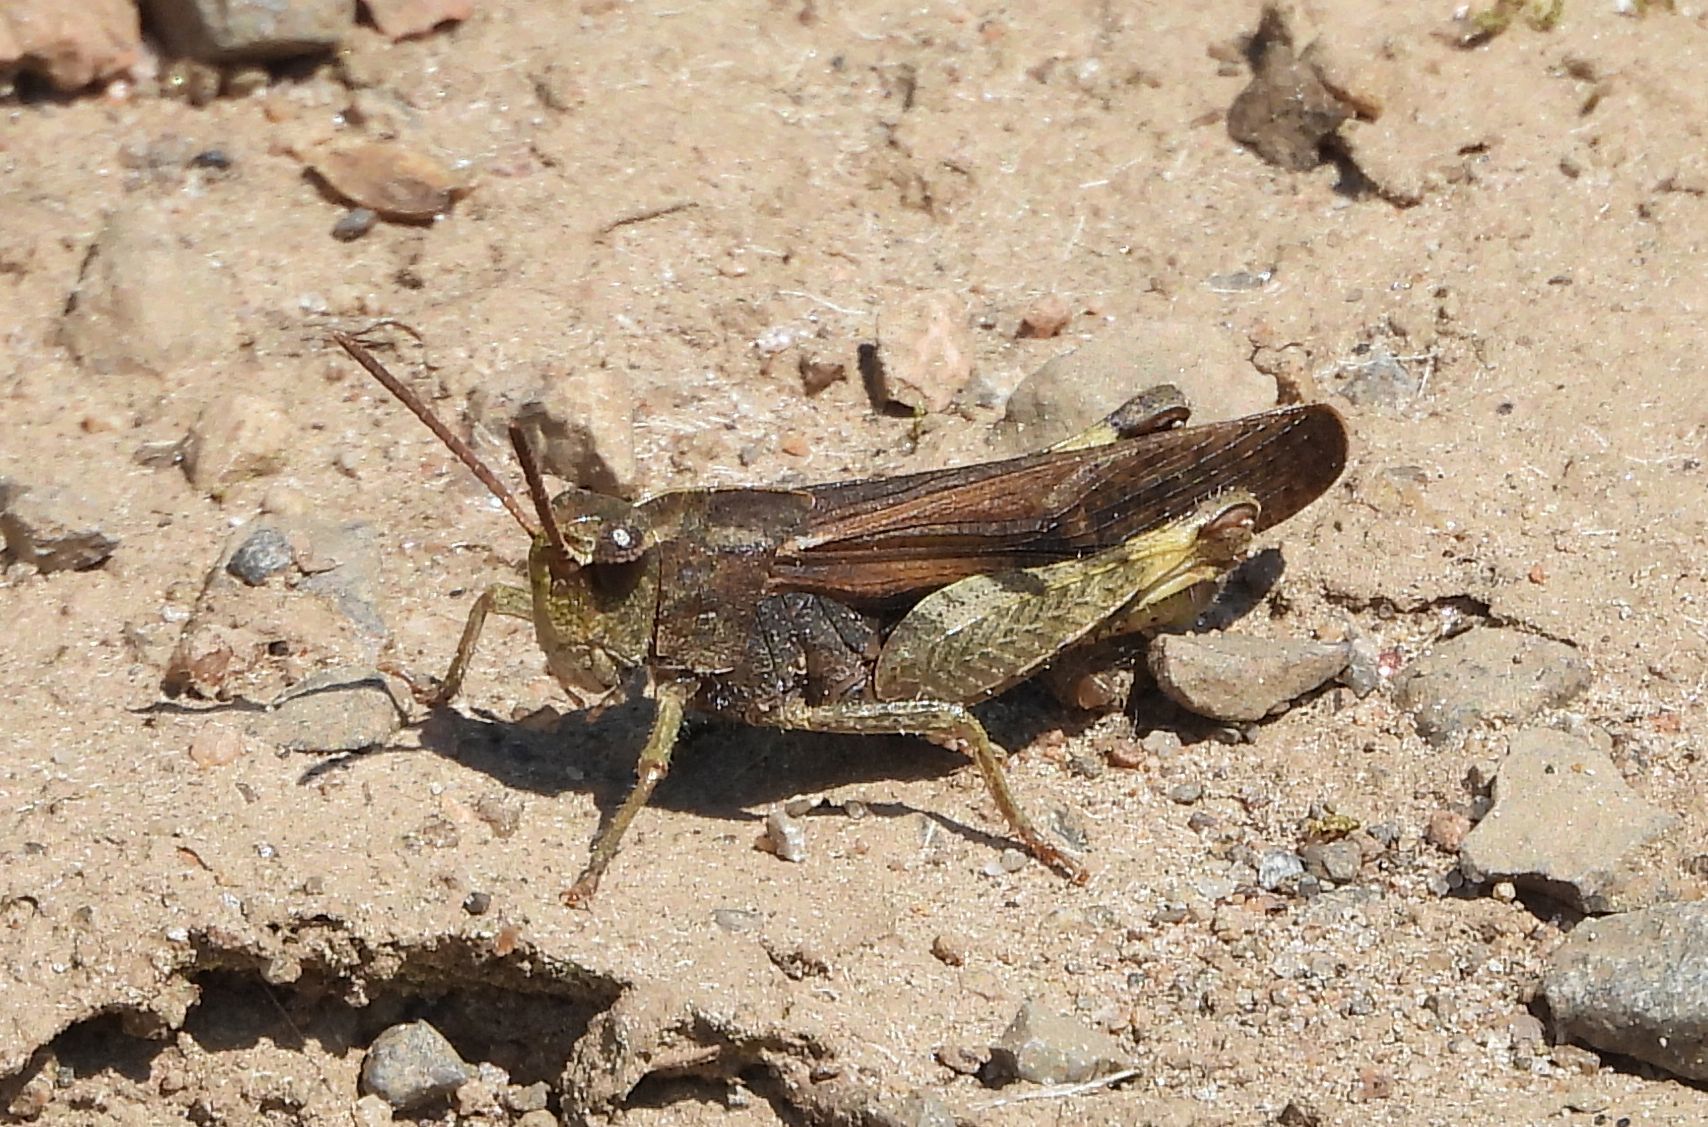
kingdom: Animalia
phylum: Arthropoda
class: Insecta
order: Orthoptera
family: Acrididae
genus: Chortophaga
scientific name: Chortophaga viridifasciata
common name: Green-striped grasshopper
